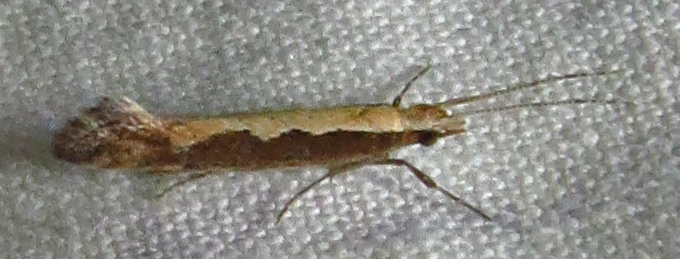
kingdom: Animalia
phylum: Arthropoda
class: Insecta
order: Lepidoptera
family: Plutellidae
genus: Plutella
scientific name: Plutella xylostella
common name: Diamond-back moth
